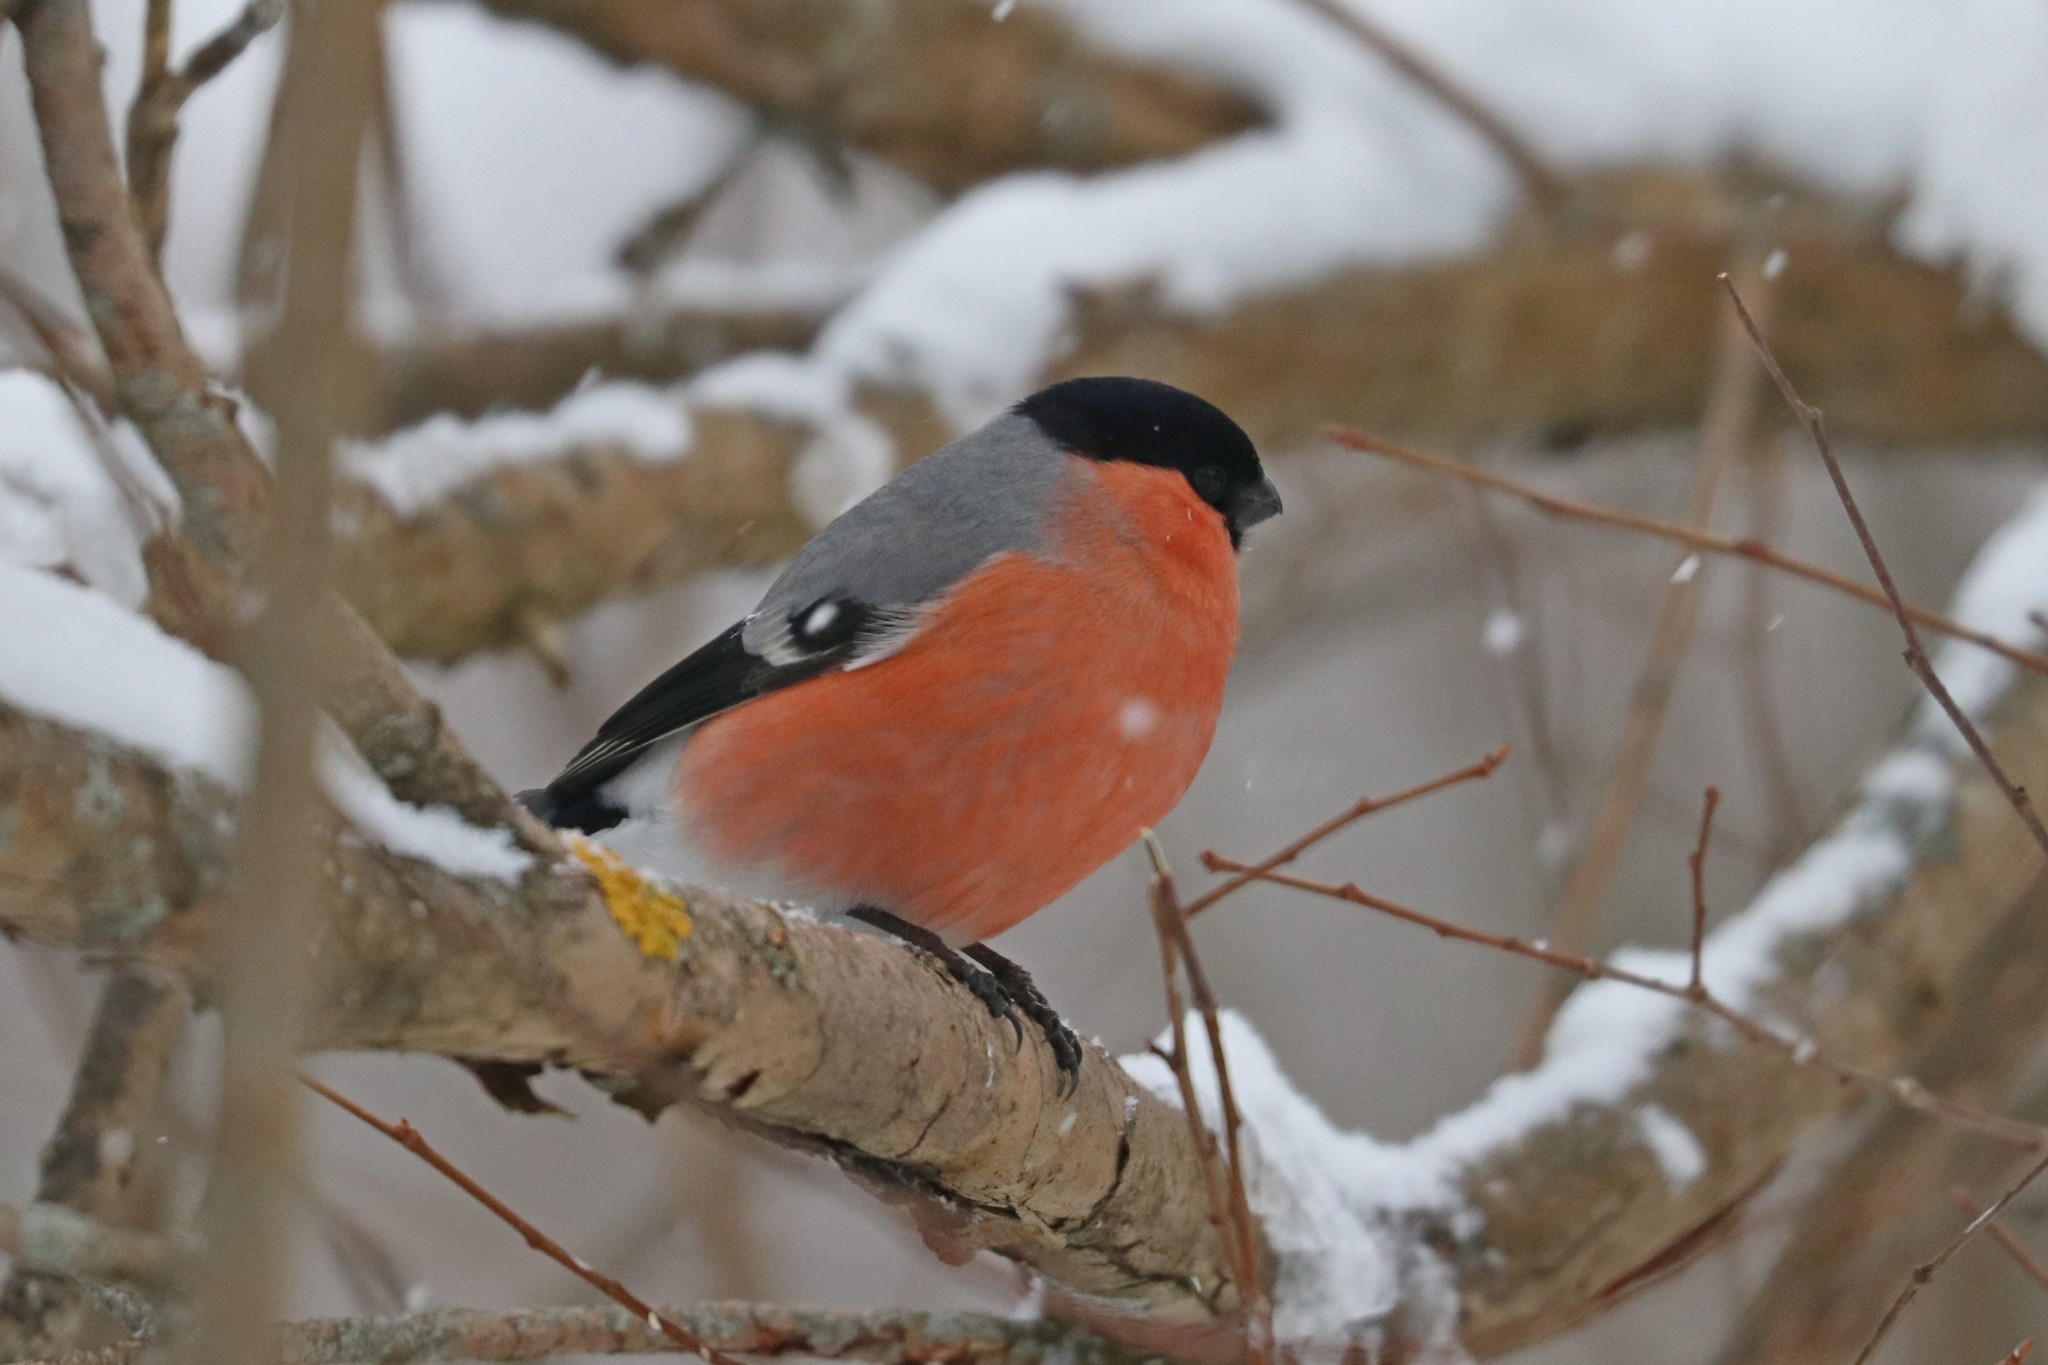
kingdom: Animalia
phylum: Chordata
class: Aves
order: Passeriformes
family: Fringillidae
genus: Pyrrhula
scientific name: Pyrrhula pyrrhula
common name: Eurasian bullfinch
